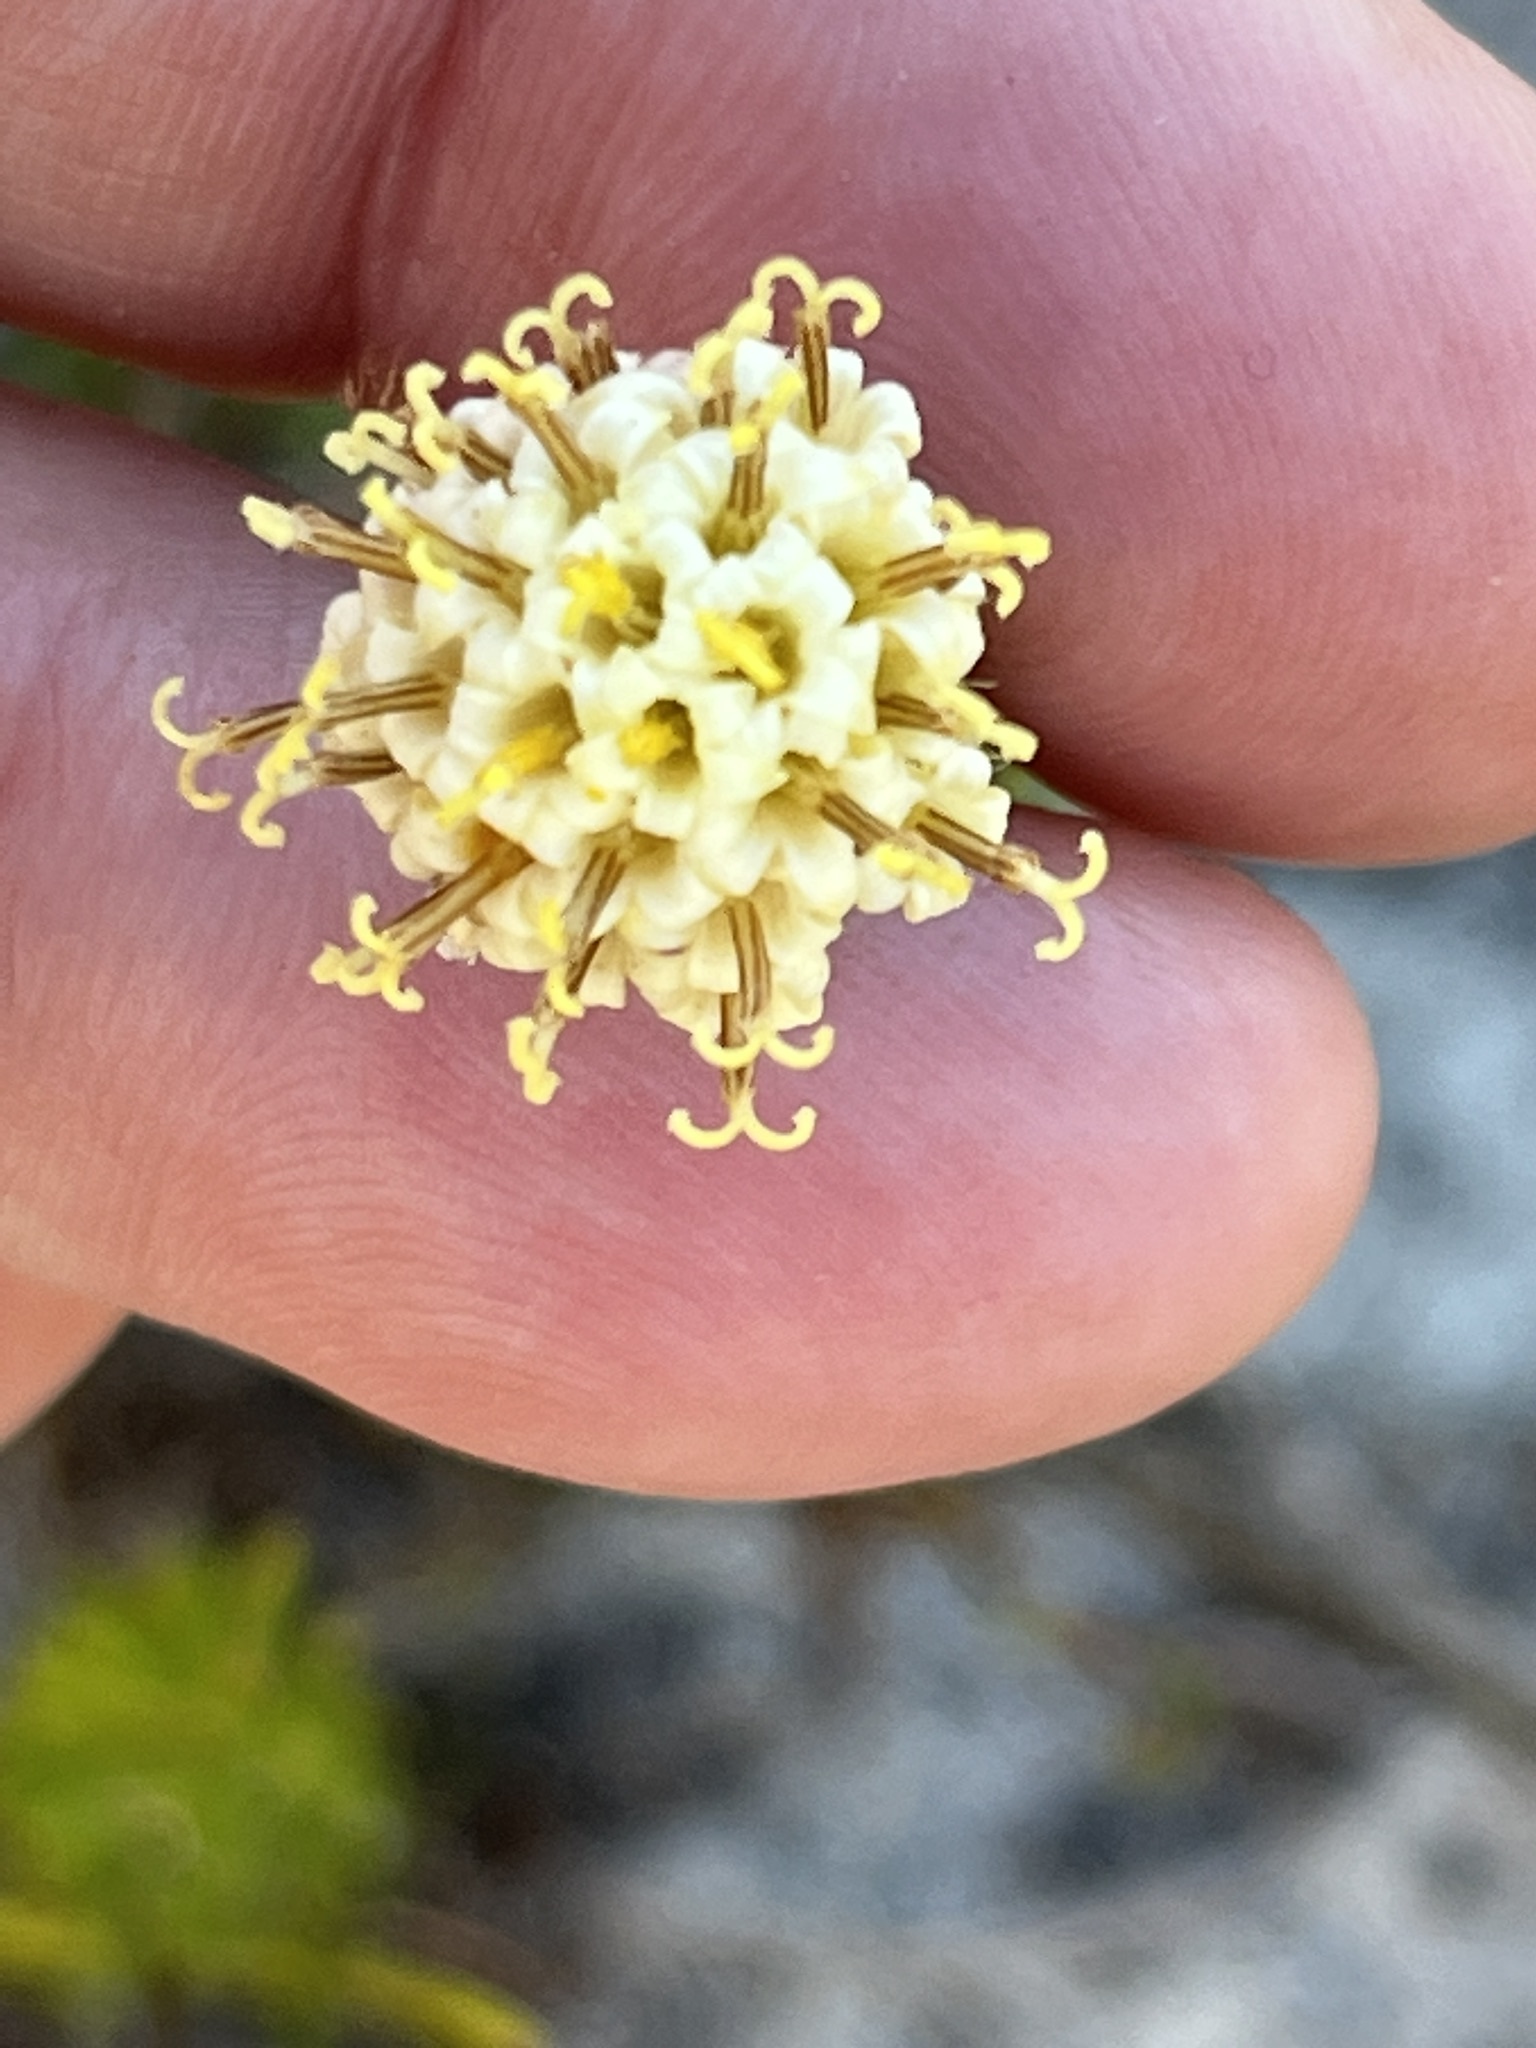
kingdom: Plantae
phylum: Tracheophyta
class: Magnoliopsida
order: Asterales
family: Asteraceae
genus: Senecio
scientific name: Senecio triqueter
